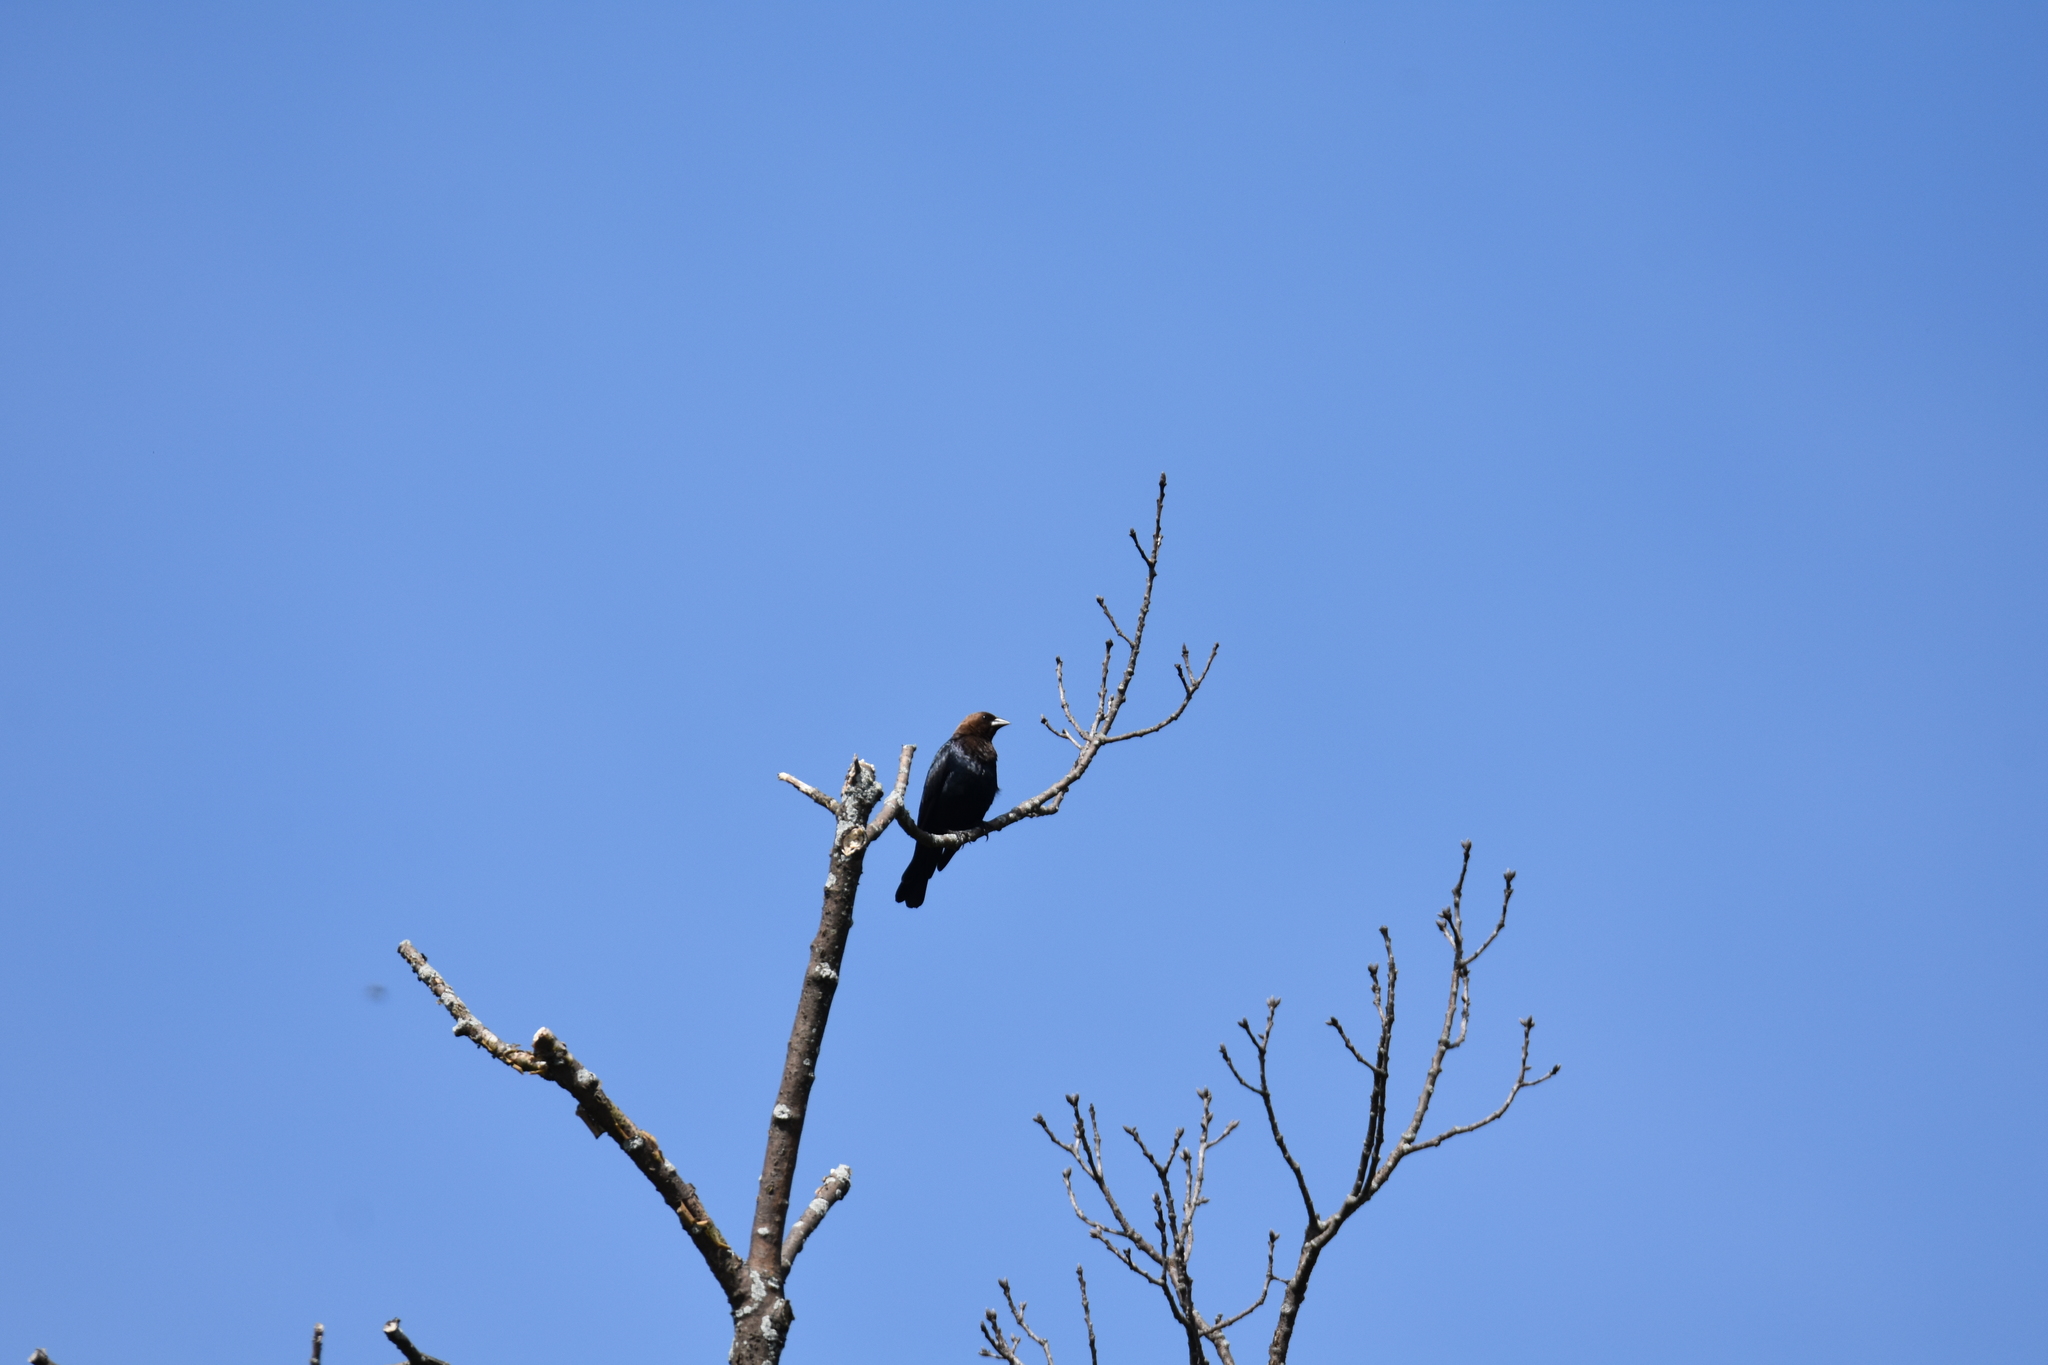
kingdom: Animalia
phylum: Chordata
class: Aves
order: Passeriformes
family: Icteridae
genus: Molothrus
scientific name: Molothrus ater
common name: Brown-headed cowbird
